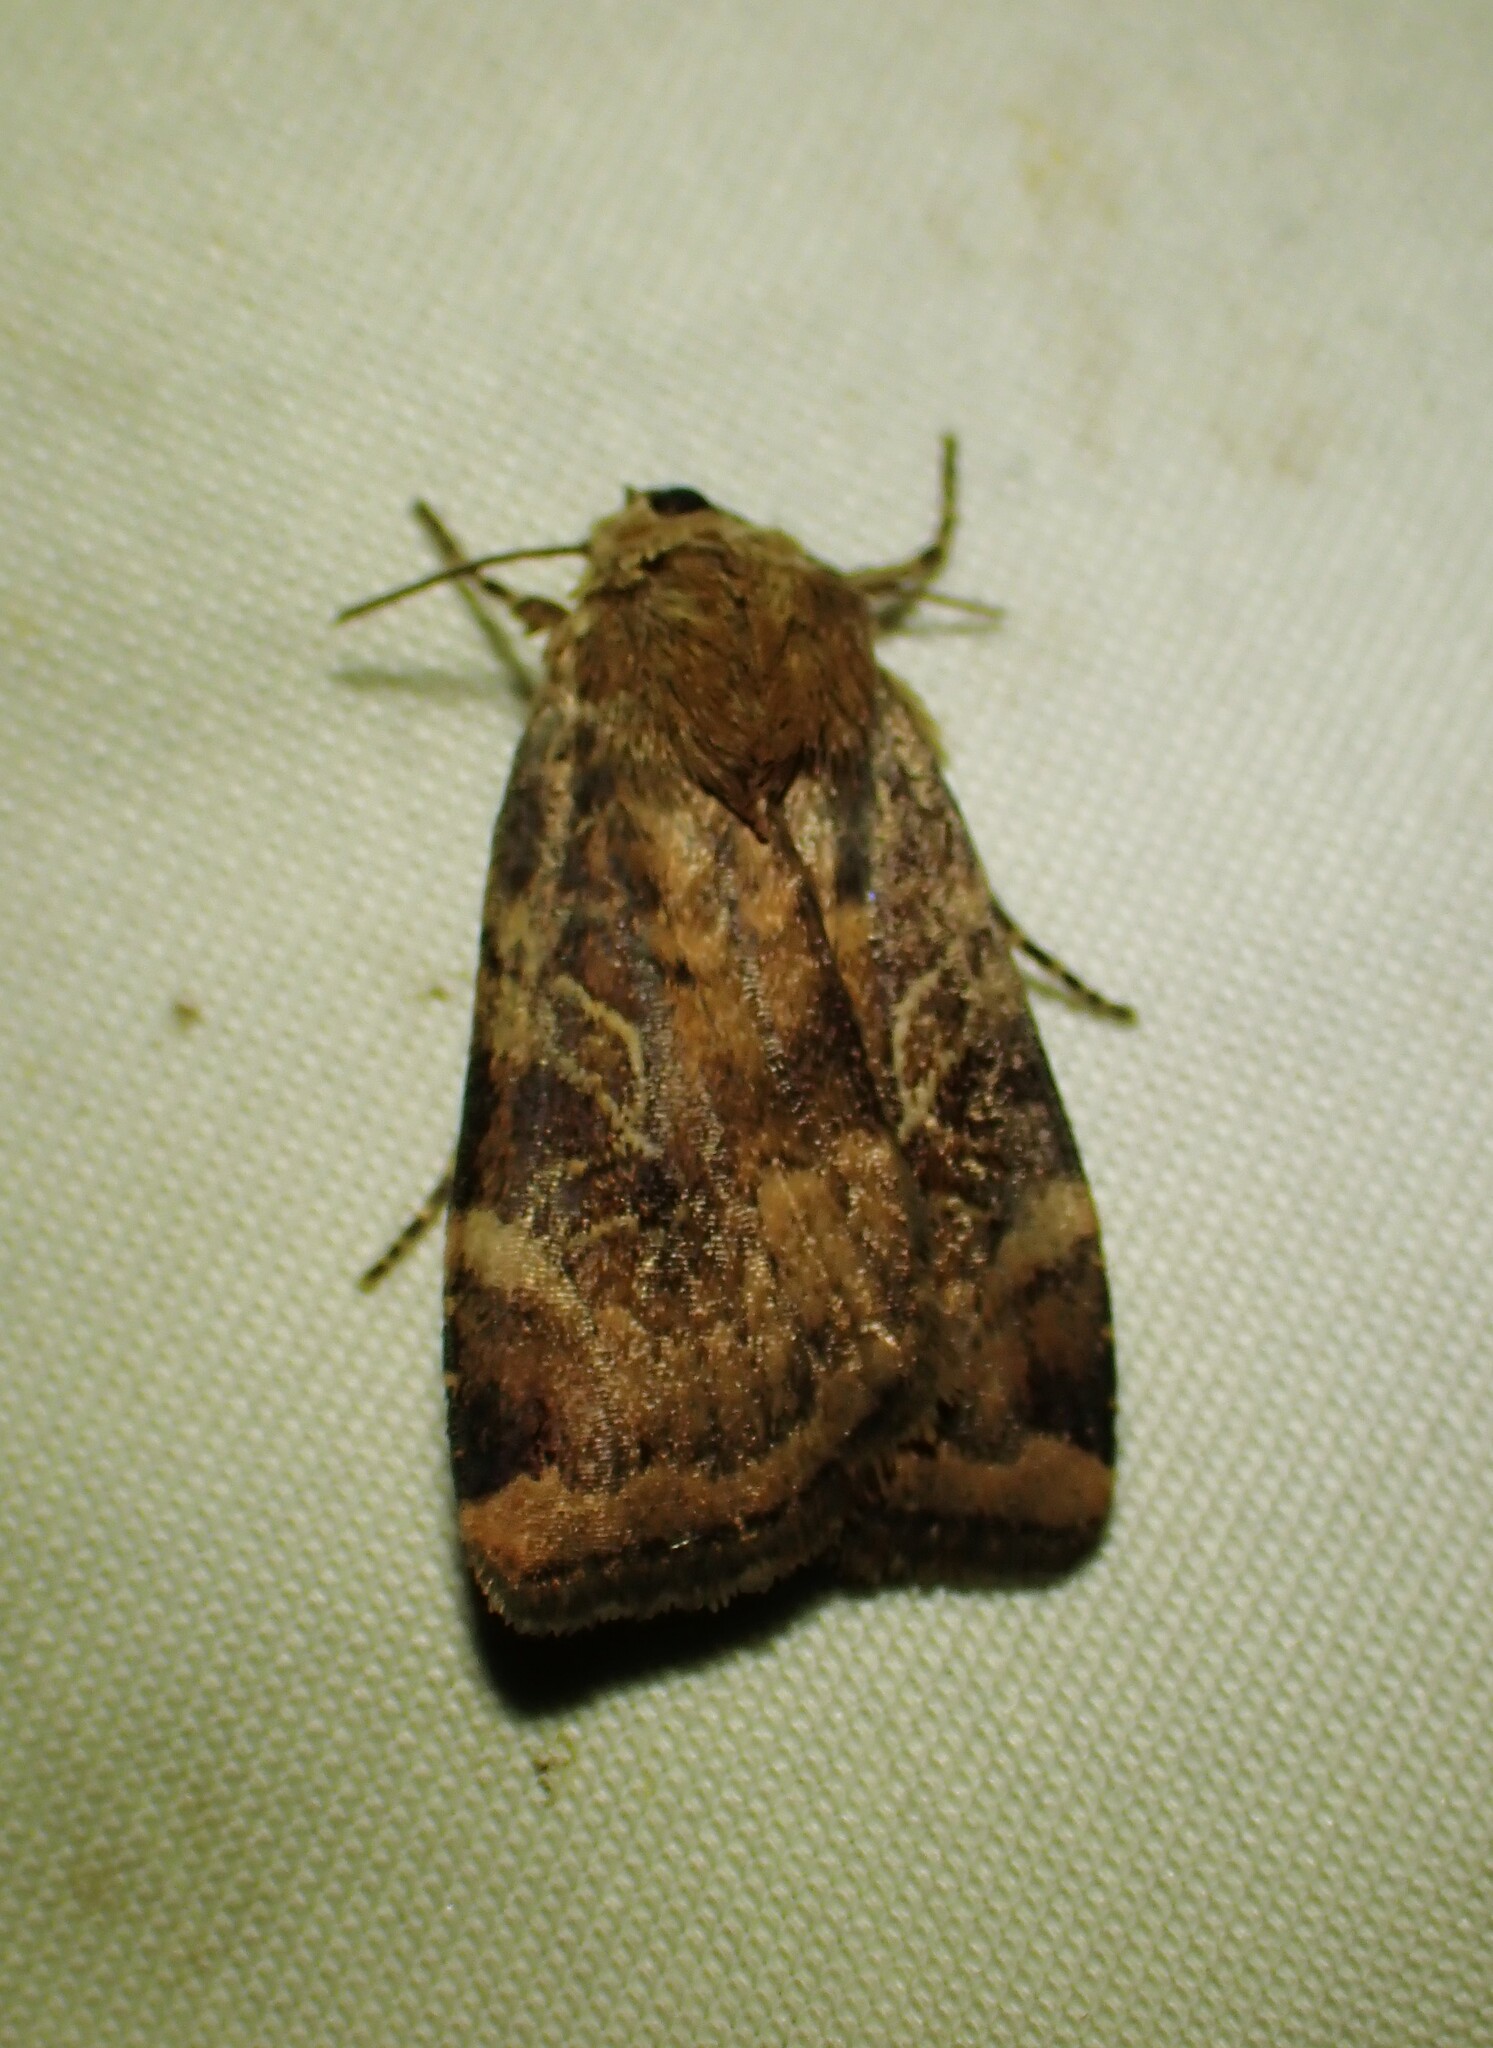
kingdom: Animalia
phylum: Arthropoda
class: Insecta
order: Lepidoptera
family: Noctuidae
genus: Cryptocala
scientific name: Cryptocala acadiensis
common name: Catocaline dart
